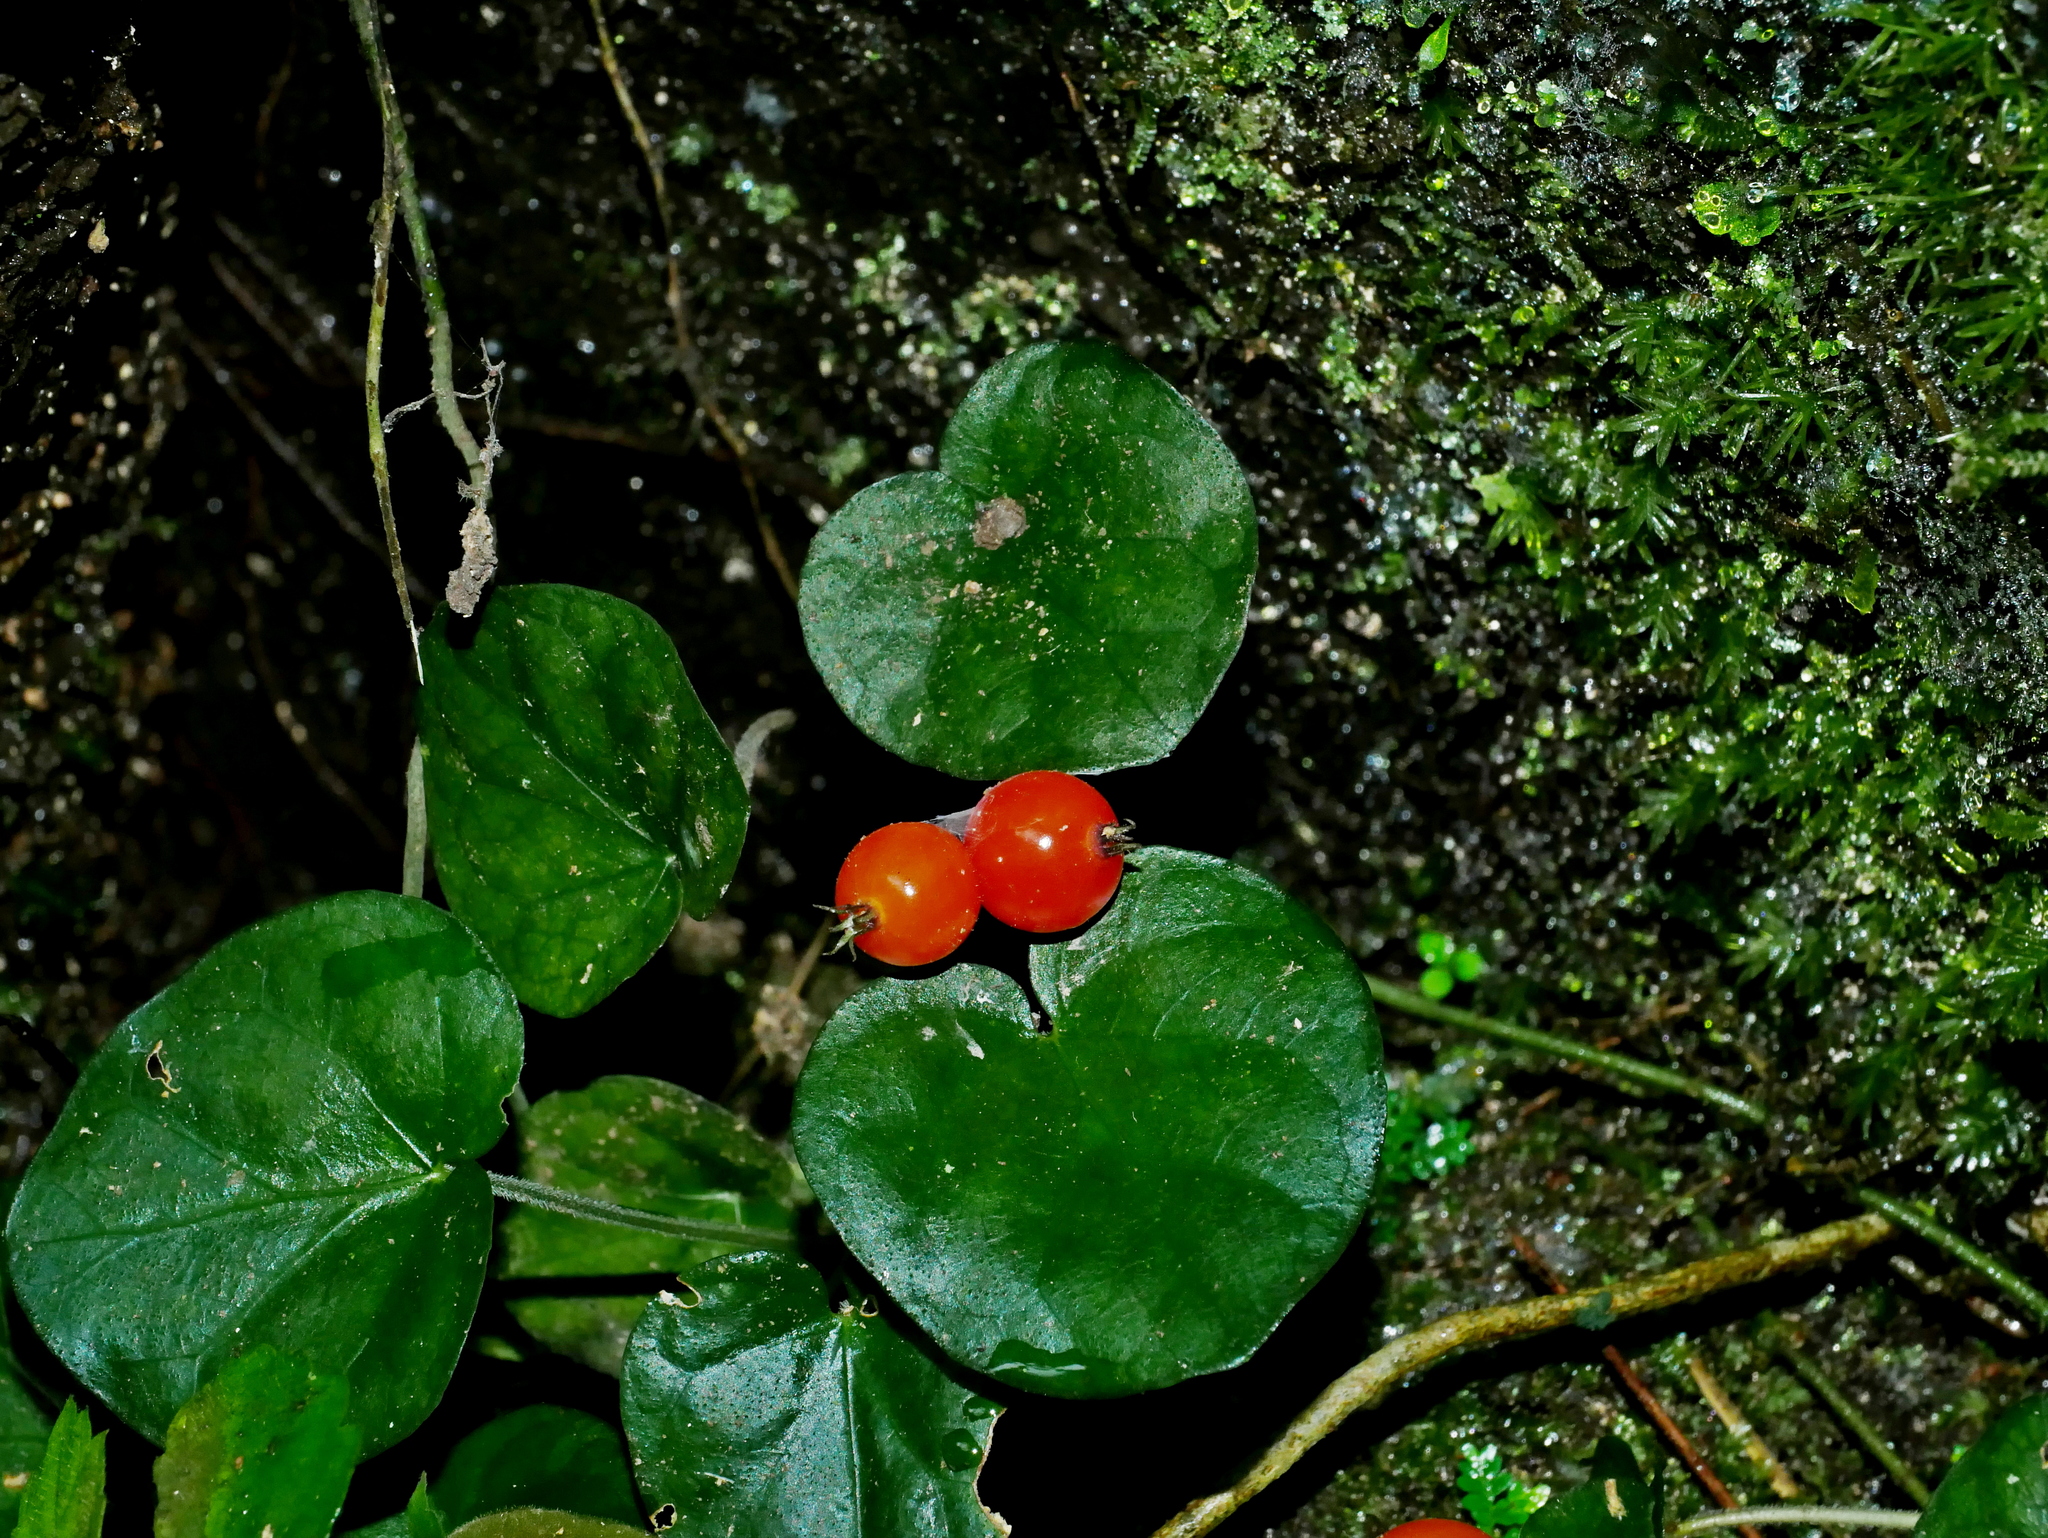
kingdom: Plantae
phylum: Tracheophyta
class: Magnoliopsida
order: Gentianales
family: Rubiaceae
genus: Geophila
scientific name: Geophila herbacea
